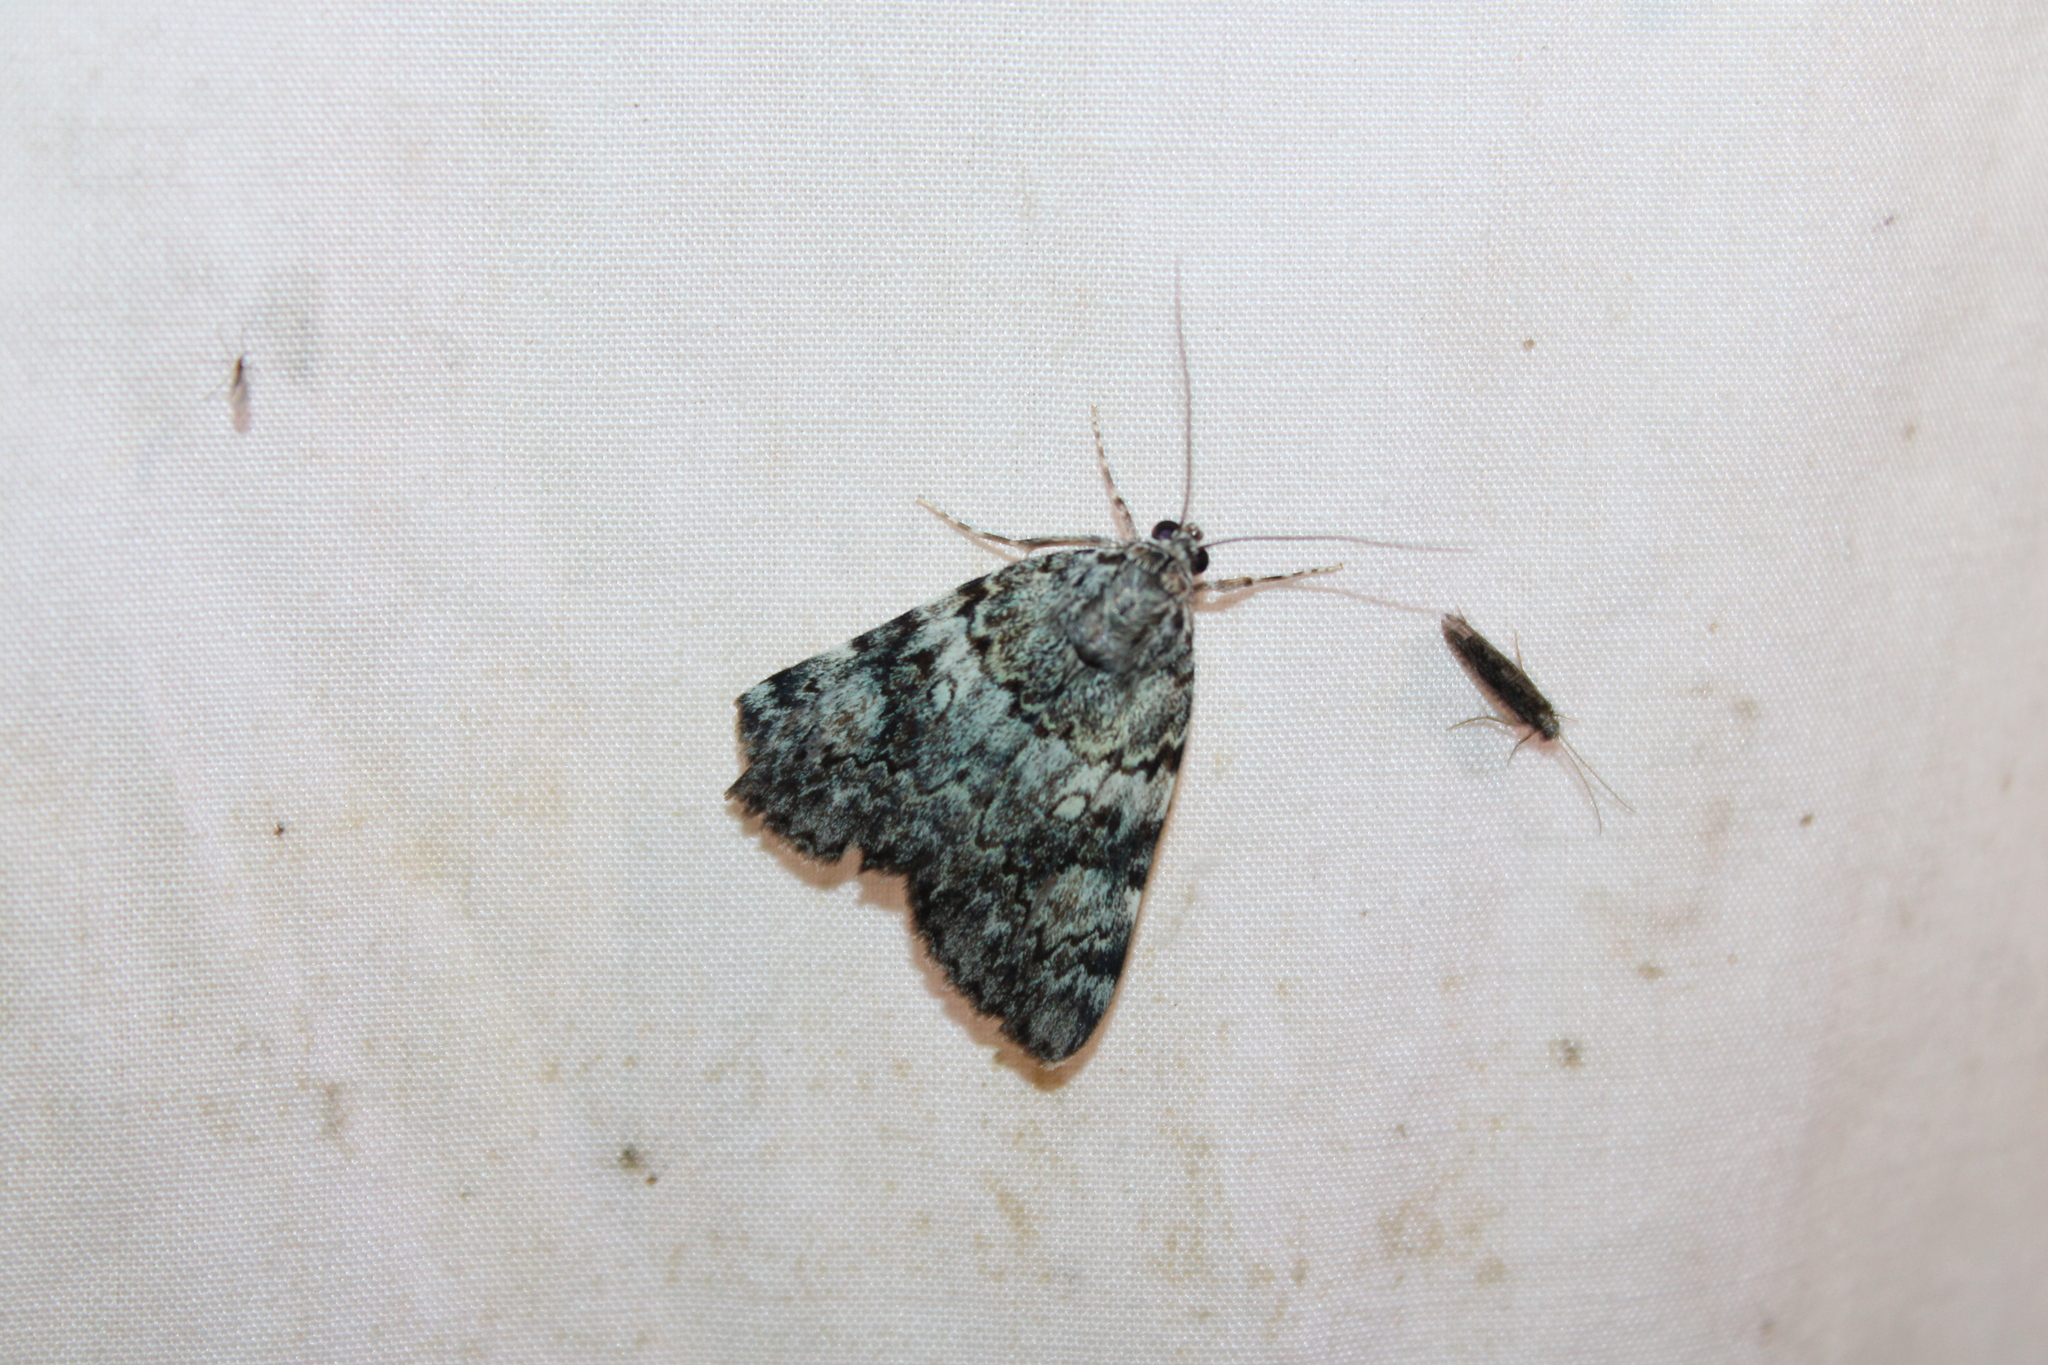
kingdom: Animalia
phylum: Arthropoda
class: Insecta
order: Lepidoptera
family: Erebidae
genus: Catocala
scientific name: Catocala lineella
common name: Little lined underwing
